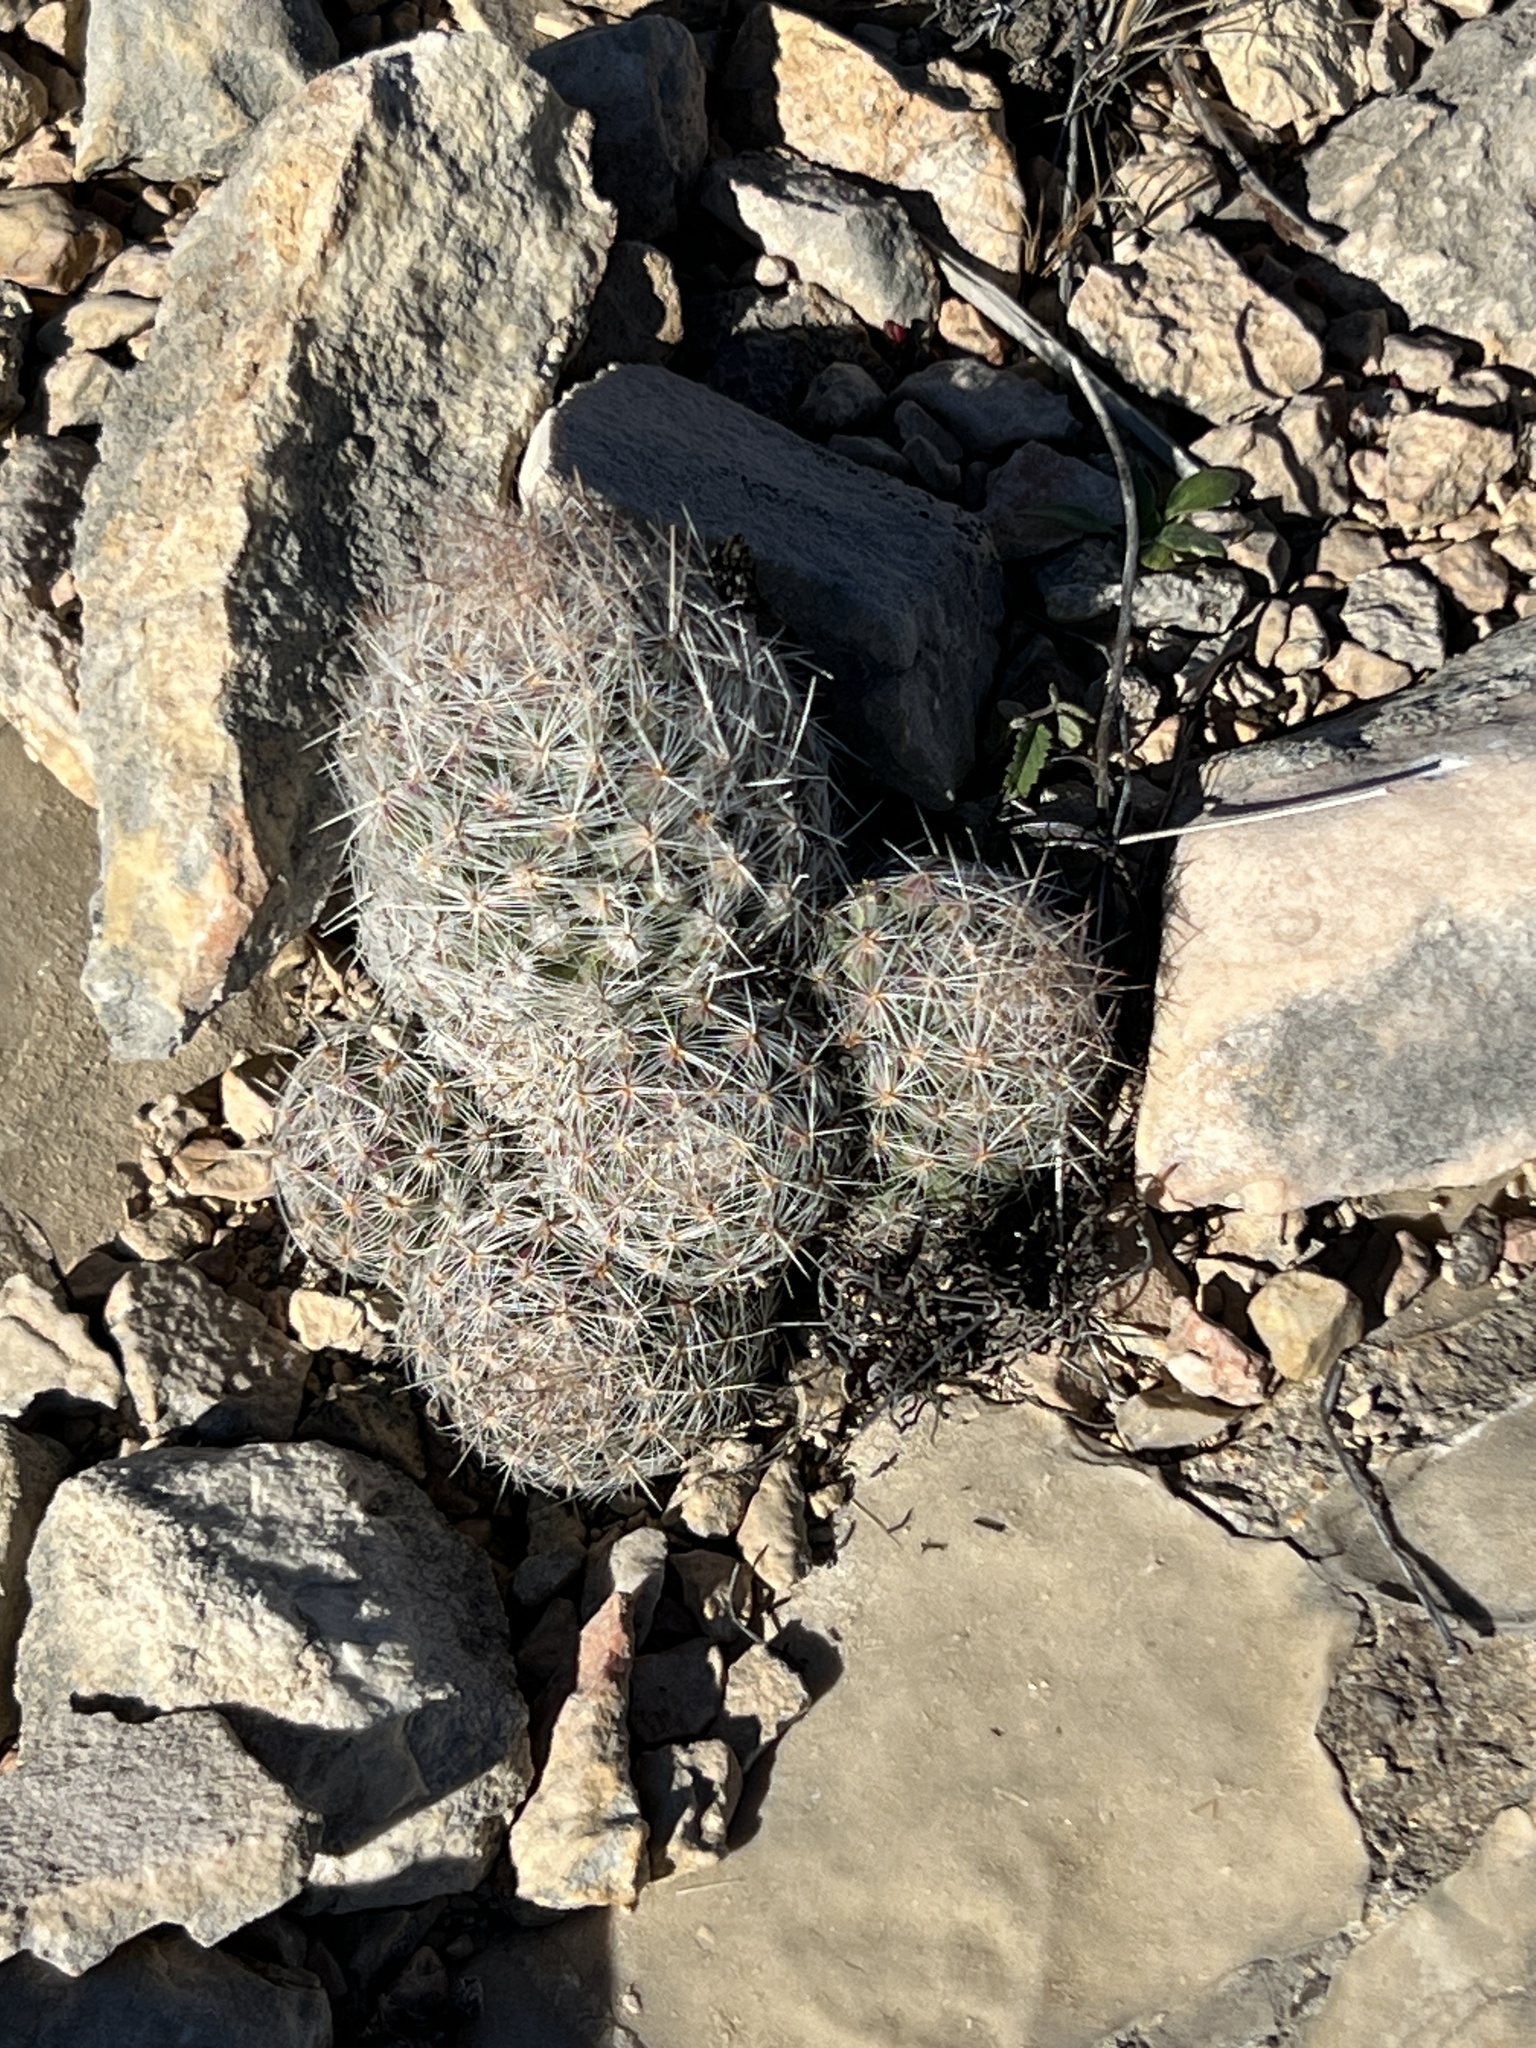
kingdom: Plantae
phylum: Tracheophyta
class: Magnoliopsida
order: Caryophyllales
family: Cactaceae
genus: Pelecyphora
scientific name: Pelecyphora tuberculosa
